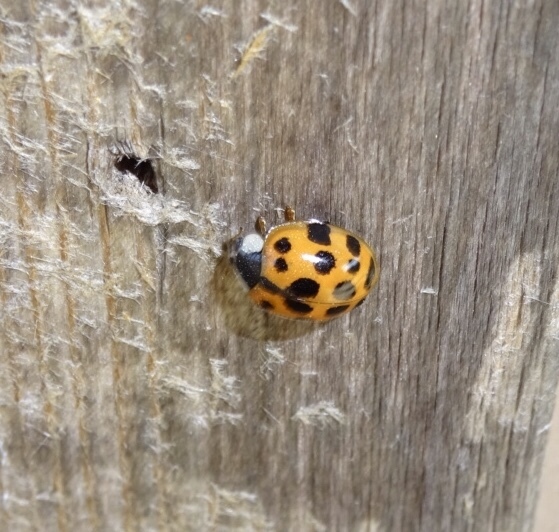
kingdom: Animalia
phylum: Arthropoda
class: Insecta
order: Coleoptera
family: Coccinellidae
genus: Harmonia
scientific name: Harmonia axyridis
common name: Harlequin ladybird
